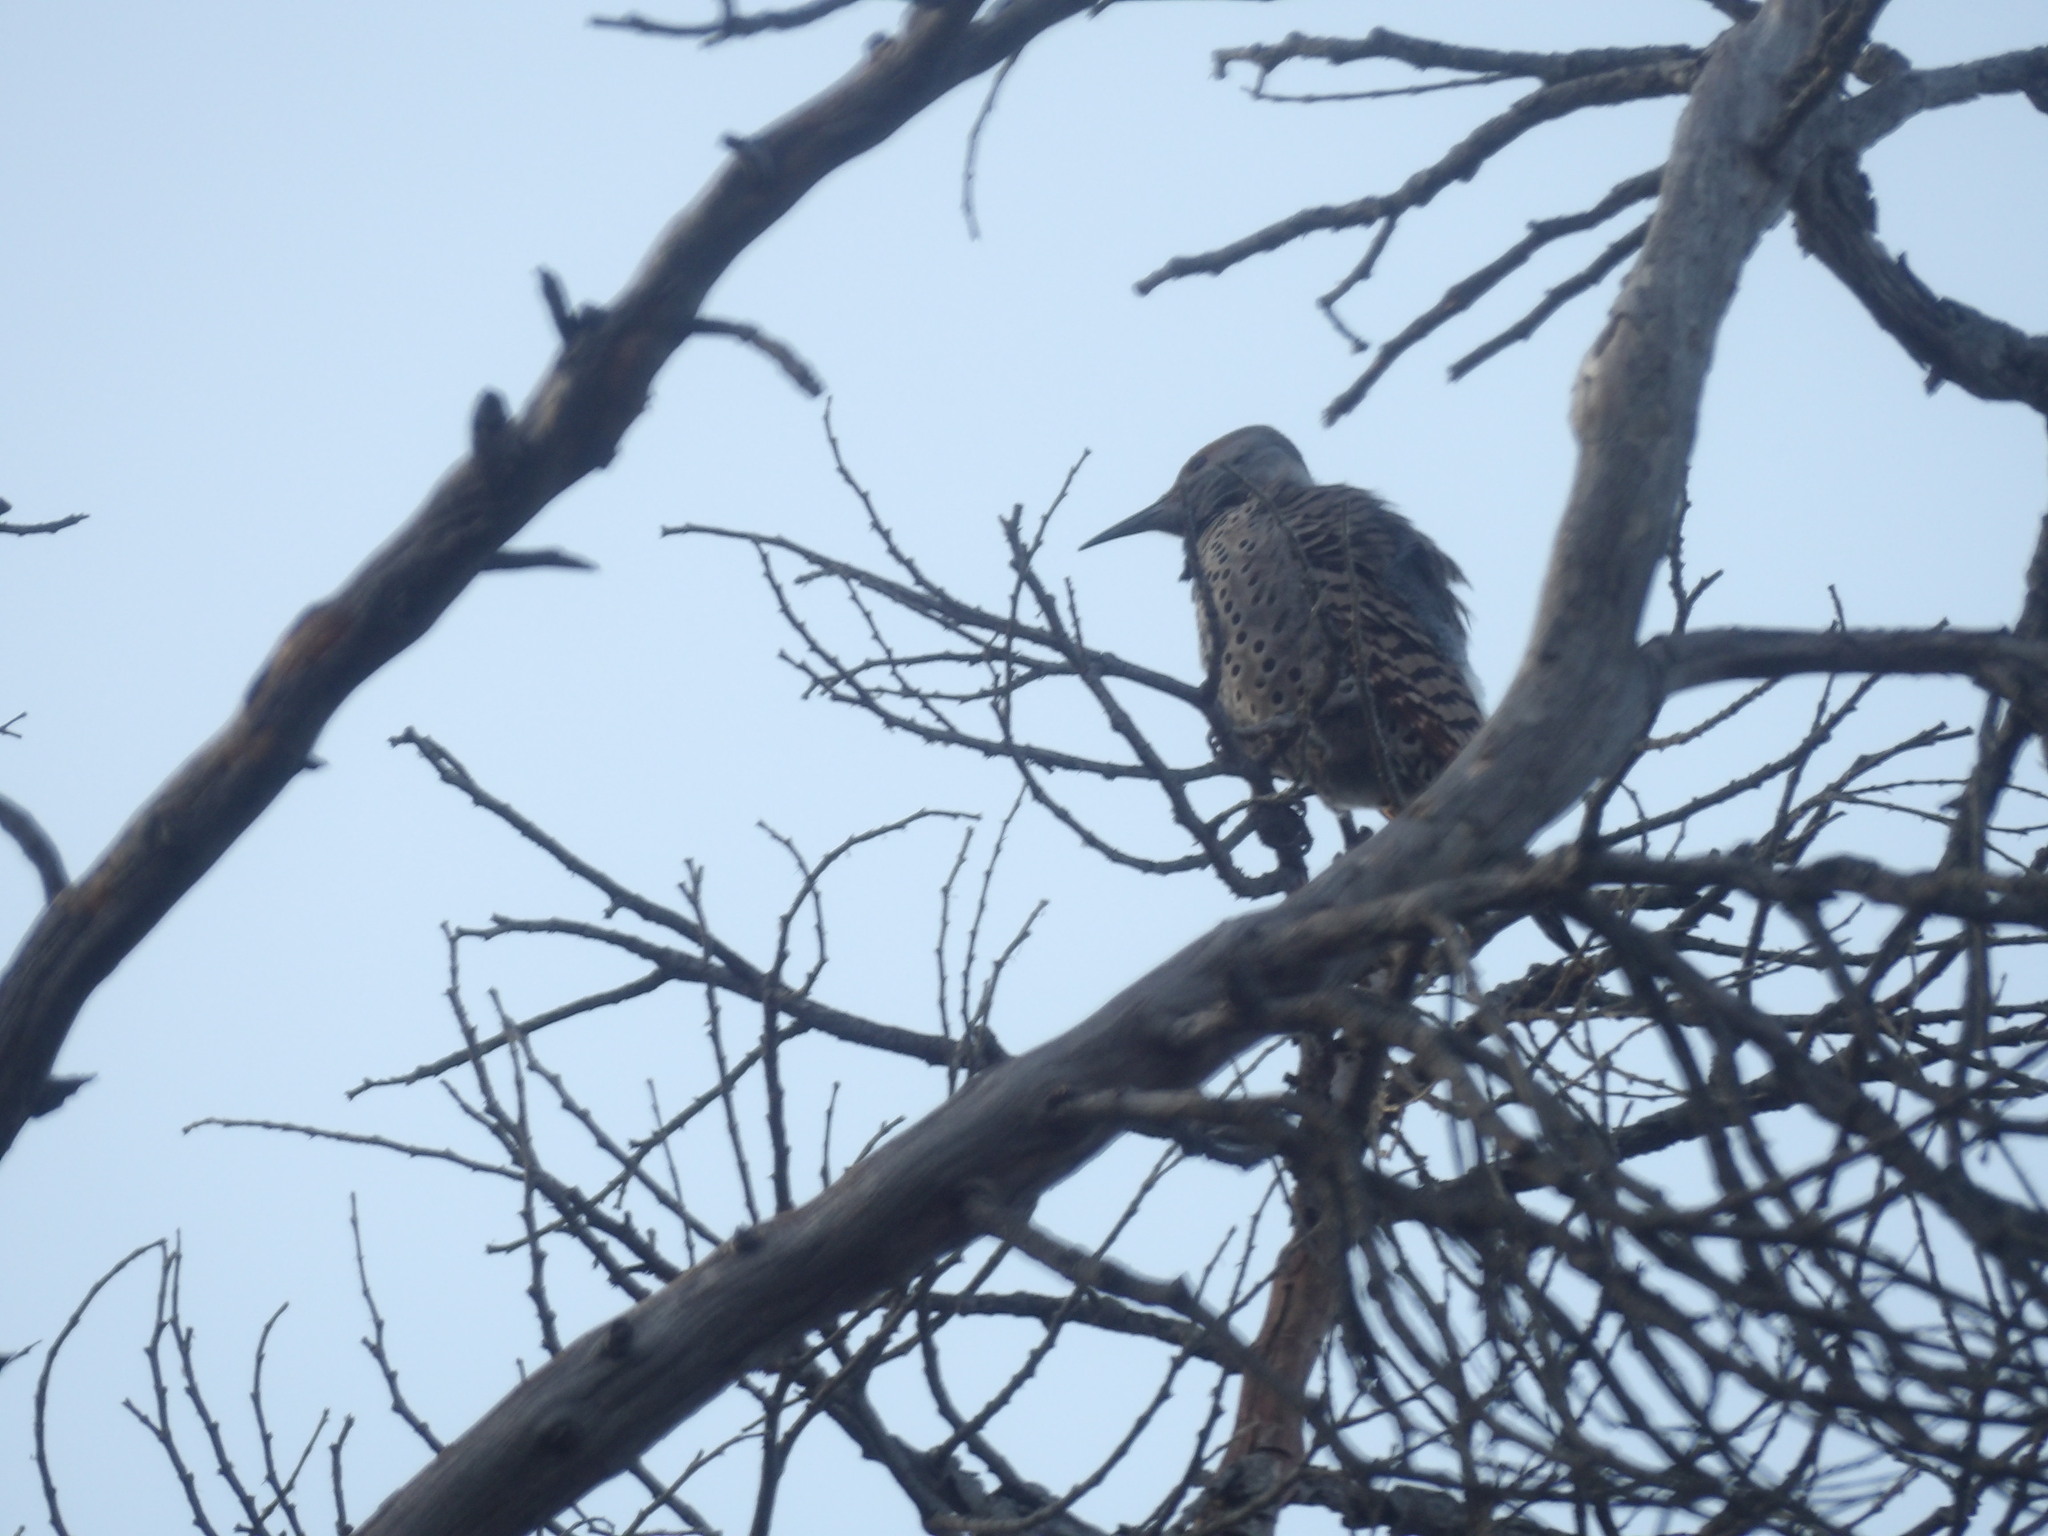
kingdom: Animalia
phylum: Chordata
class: Aves
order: Piciformes
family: Picidae
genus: Colaptes
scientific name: Colaptes auratus
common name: Northern flicker
